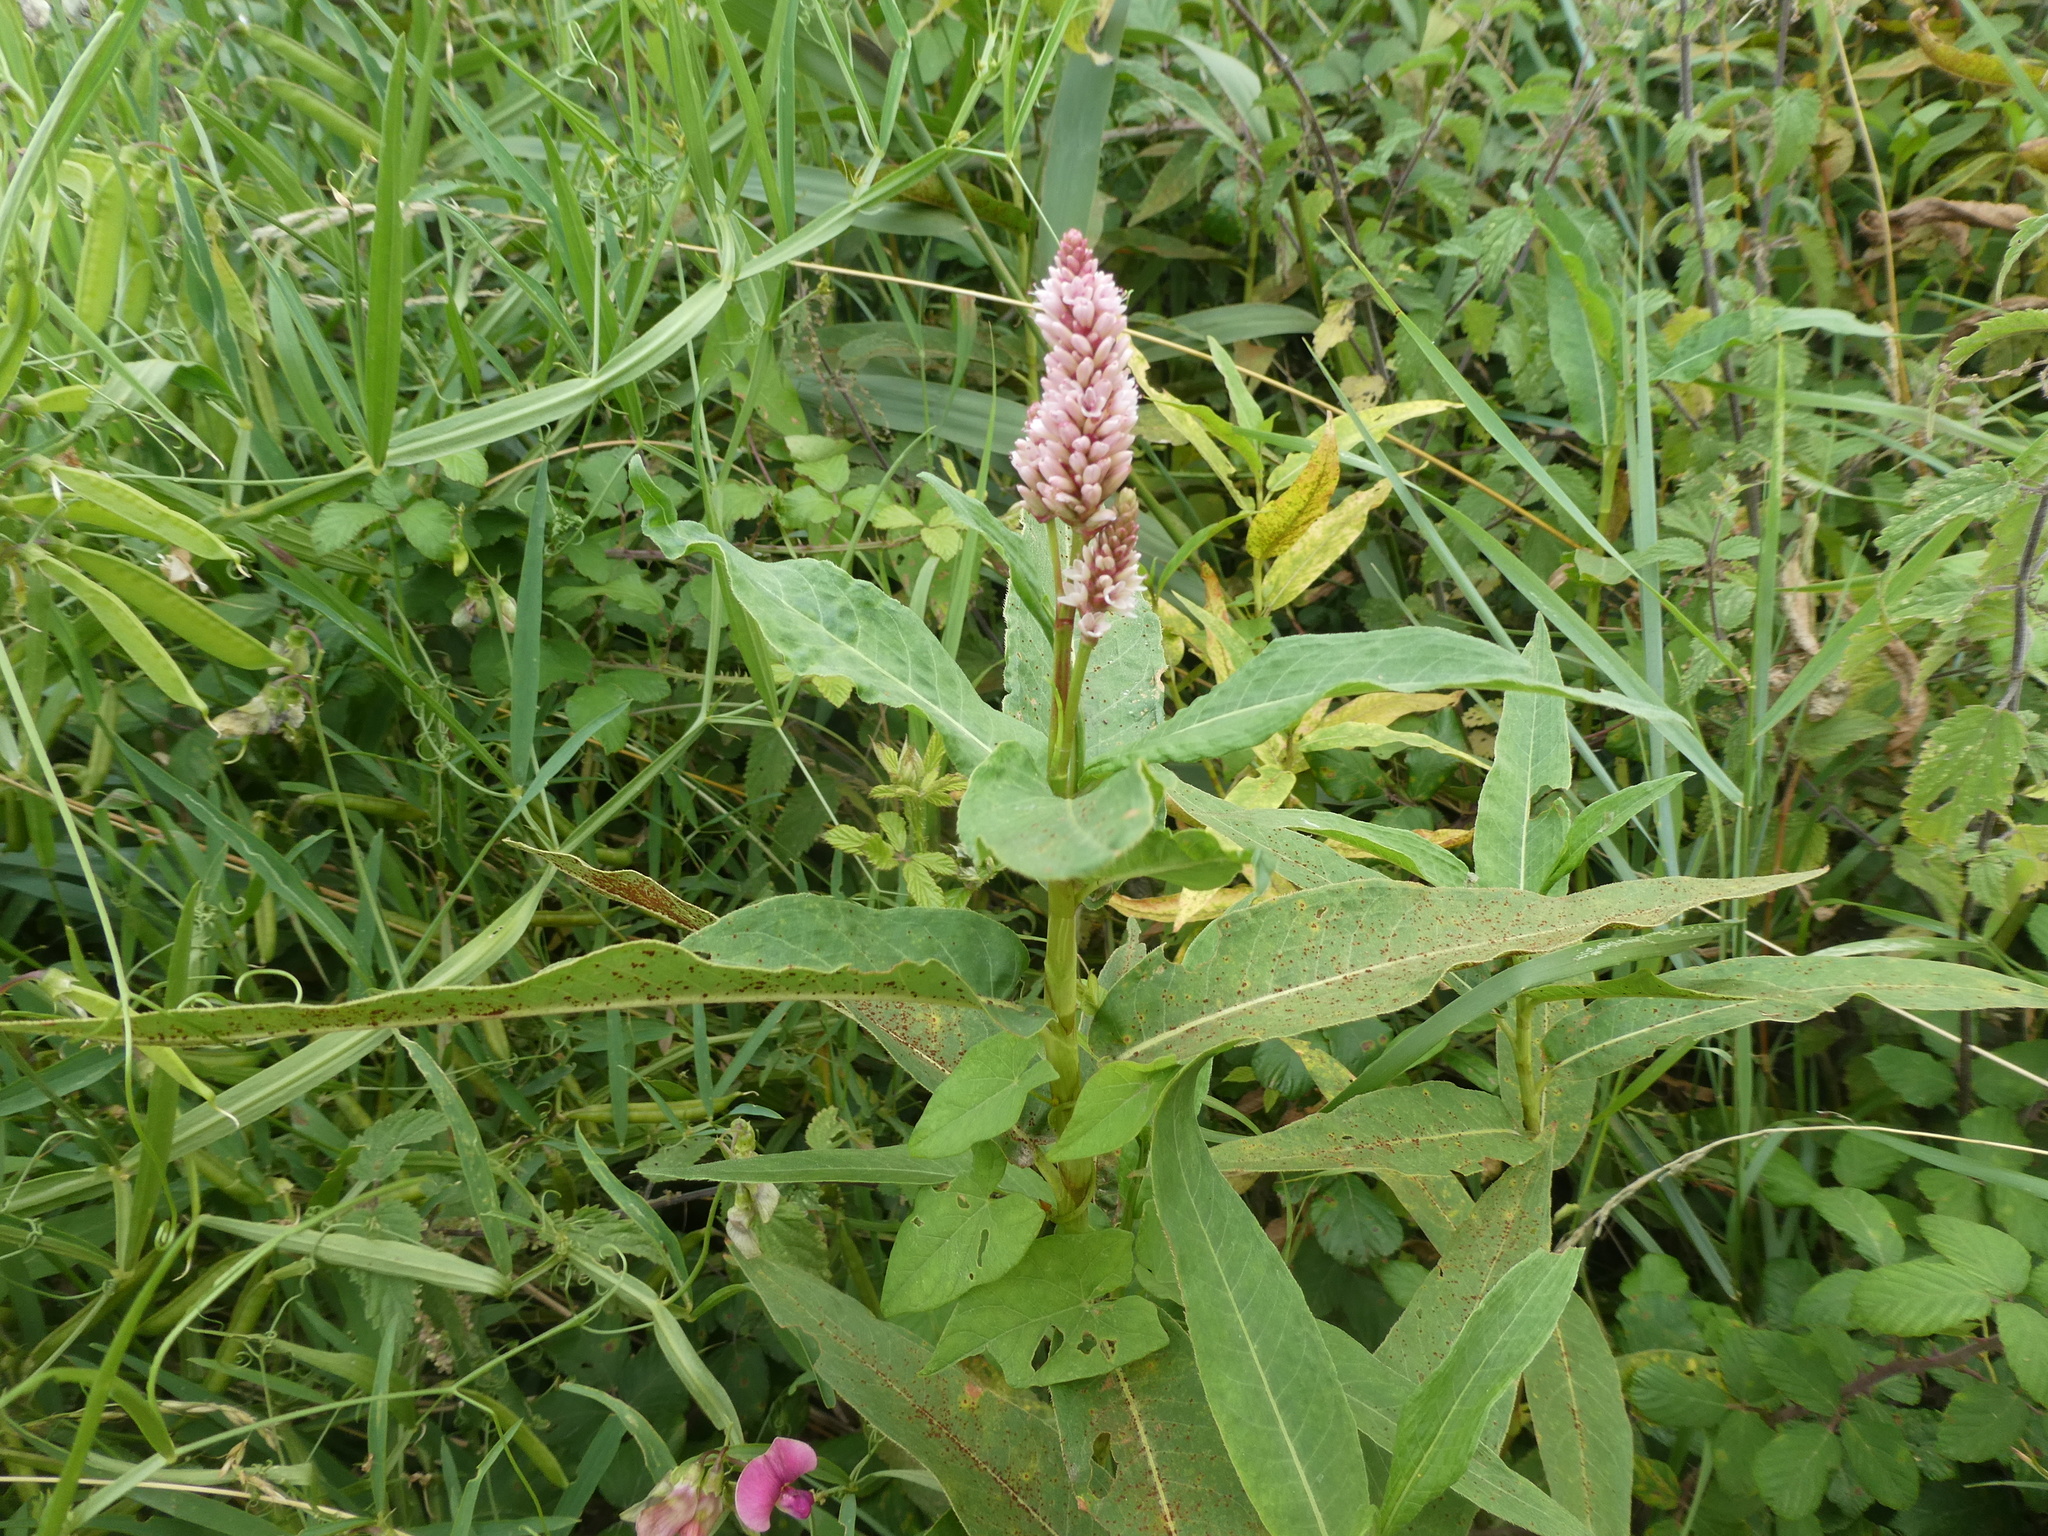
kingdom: Plantae
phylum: Tracheophyta
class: Magnoliopsida
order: Caryophyllales
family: Polygonaceae
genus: Persicaria
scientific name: Persicaria amphibia
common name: Amphibious bistort
